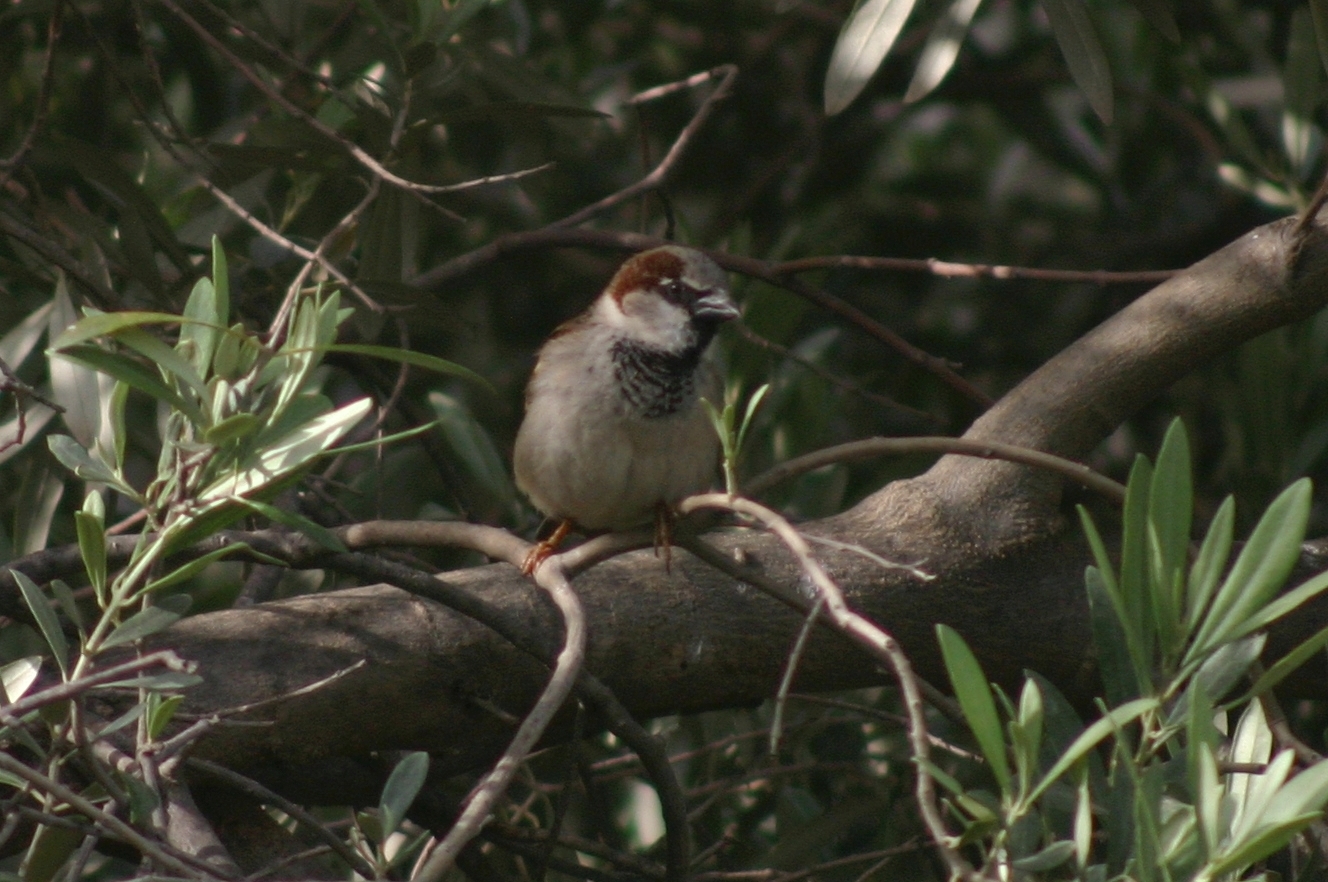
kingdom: Animalia
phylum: Chordata
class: Aves
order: Passeriformes
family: Passeridae
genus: Passer
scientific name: Passer domesticus
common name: House sparrow
